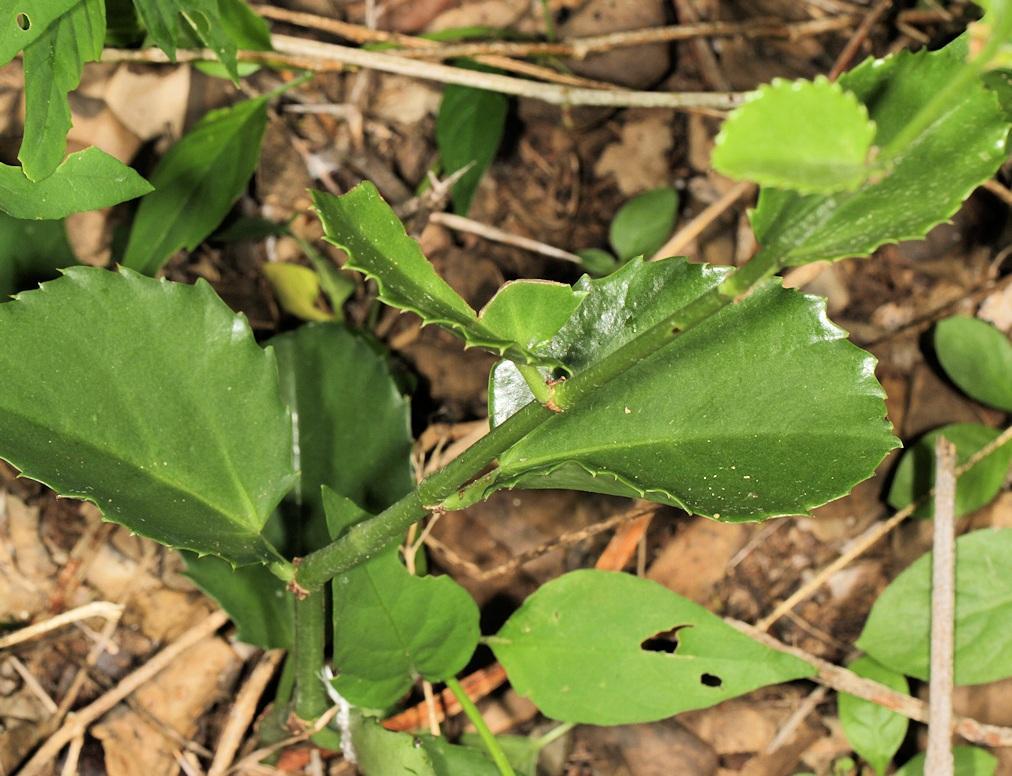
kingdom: Plantae
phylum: Tracheophyta
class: Magnoliopsida
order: Vitales
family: Vitaceae
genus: Cissus
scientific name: Cissus rotundifolia
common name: Arabian wax cissus
